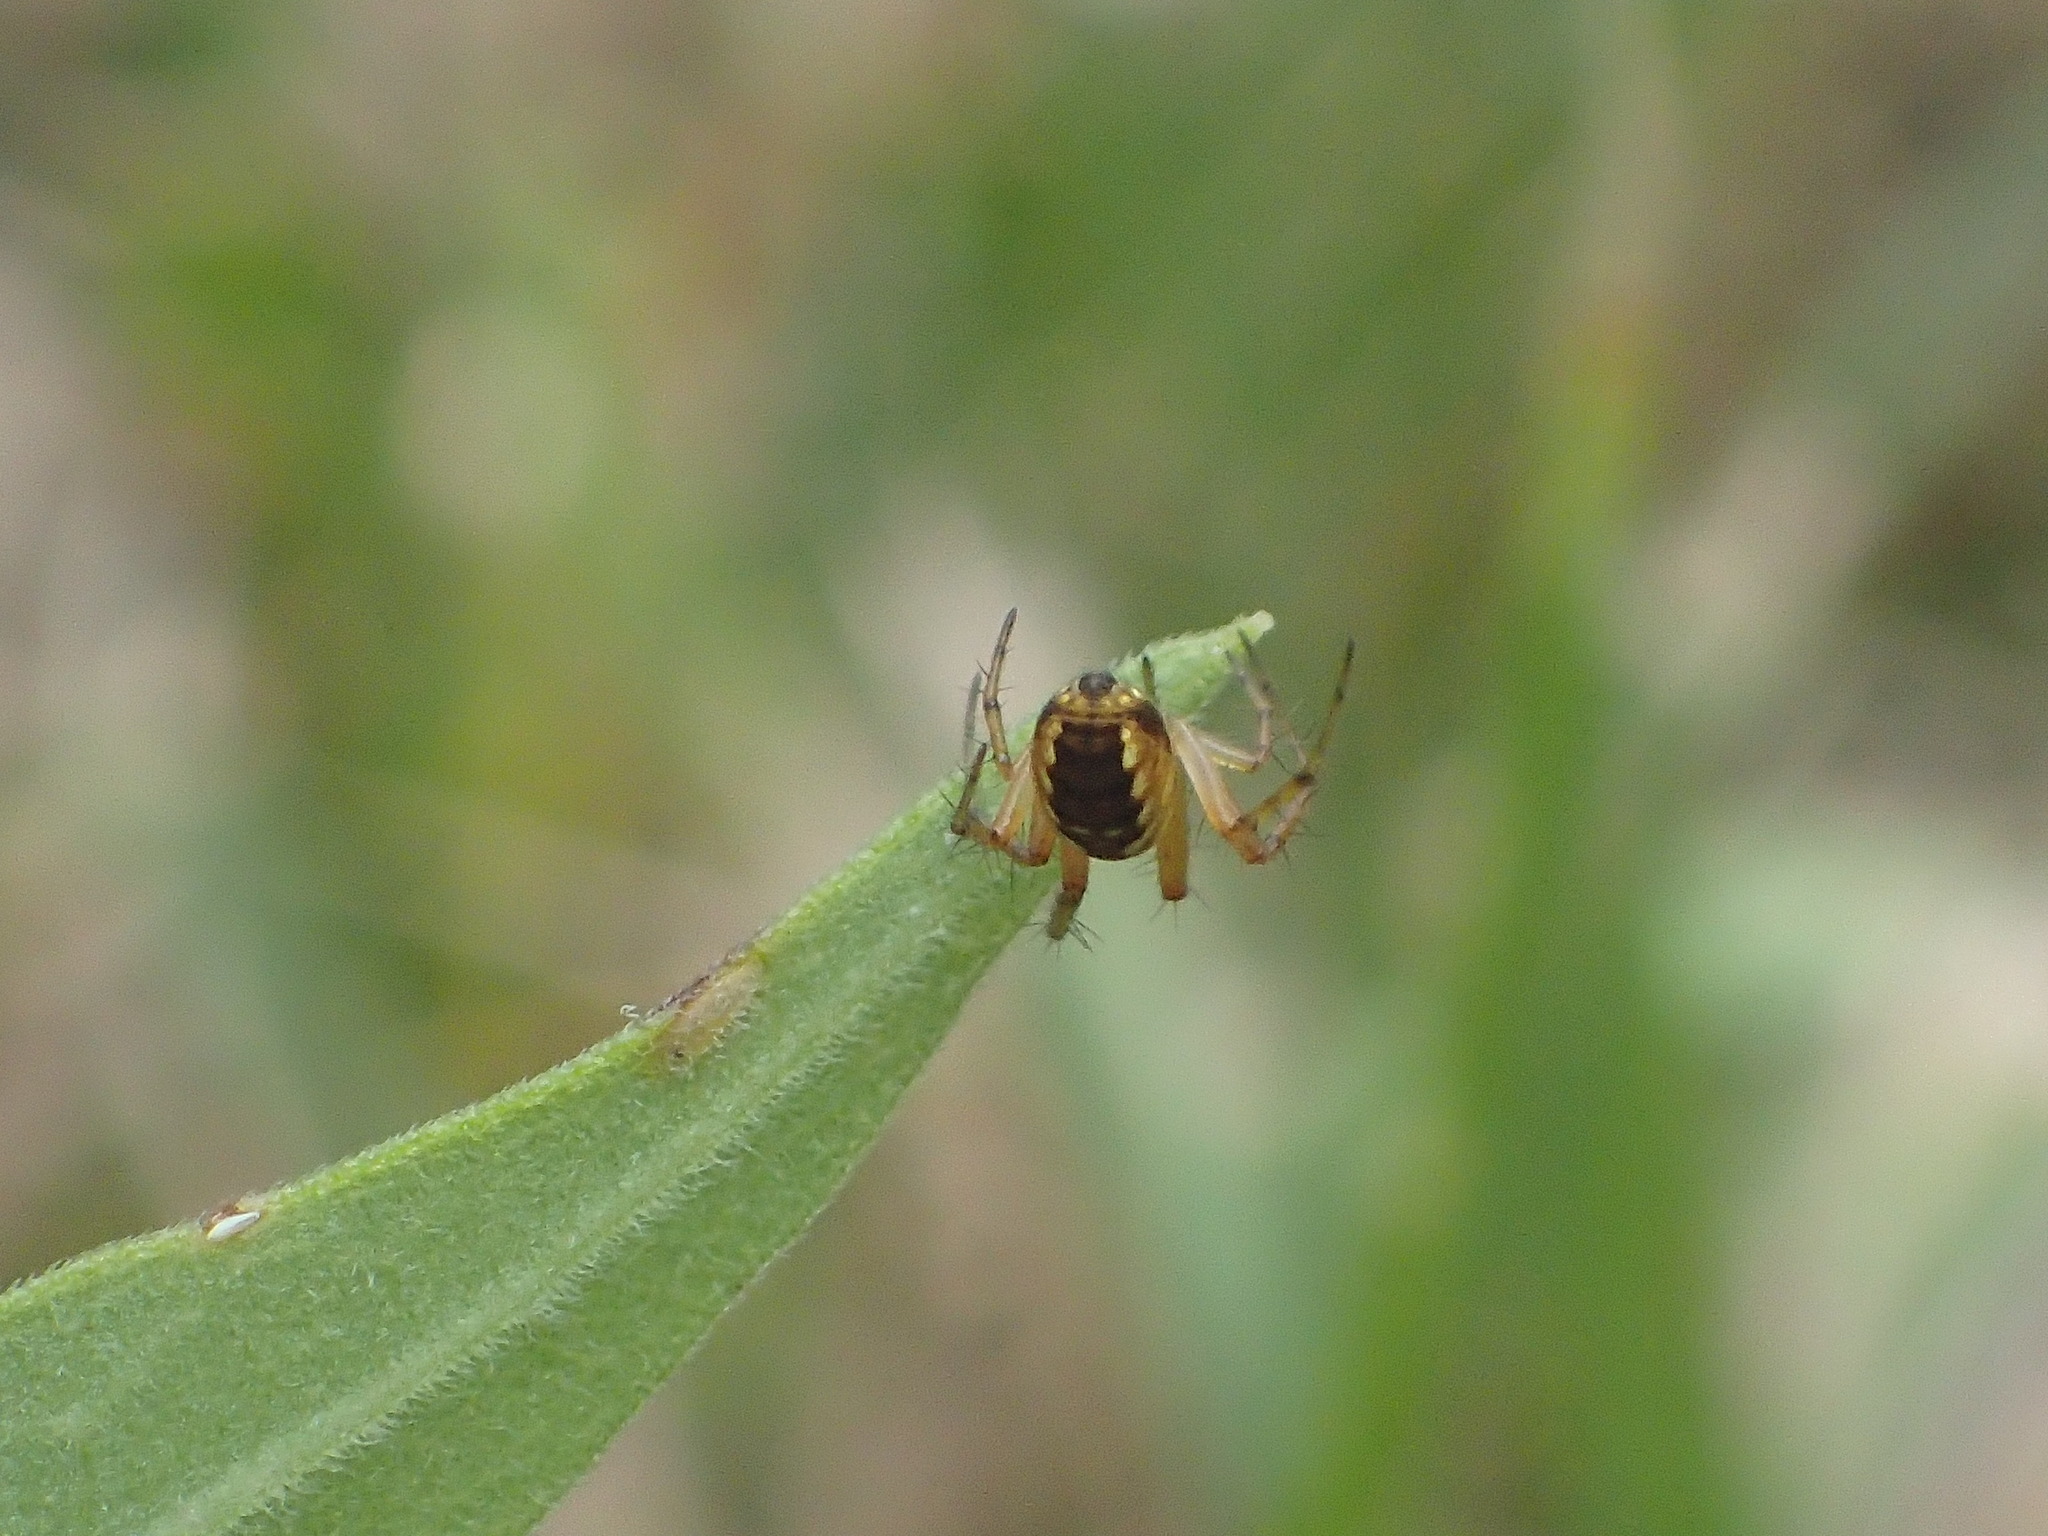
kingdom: Animalia
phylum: Arthropoda
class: Arachnida
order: Araneae
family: Araneidae
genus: Mangora
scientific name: Mangora placida
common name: Tuft-legged orbweaver
